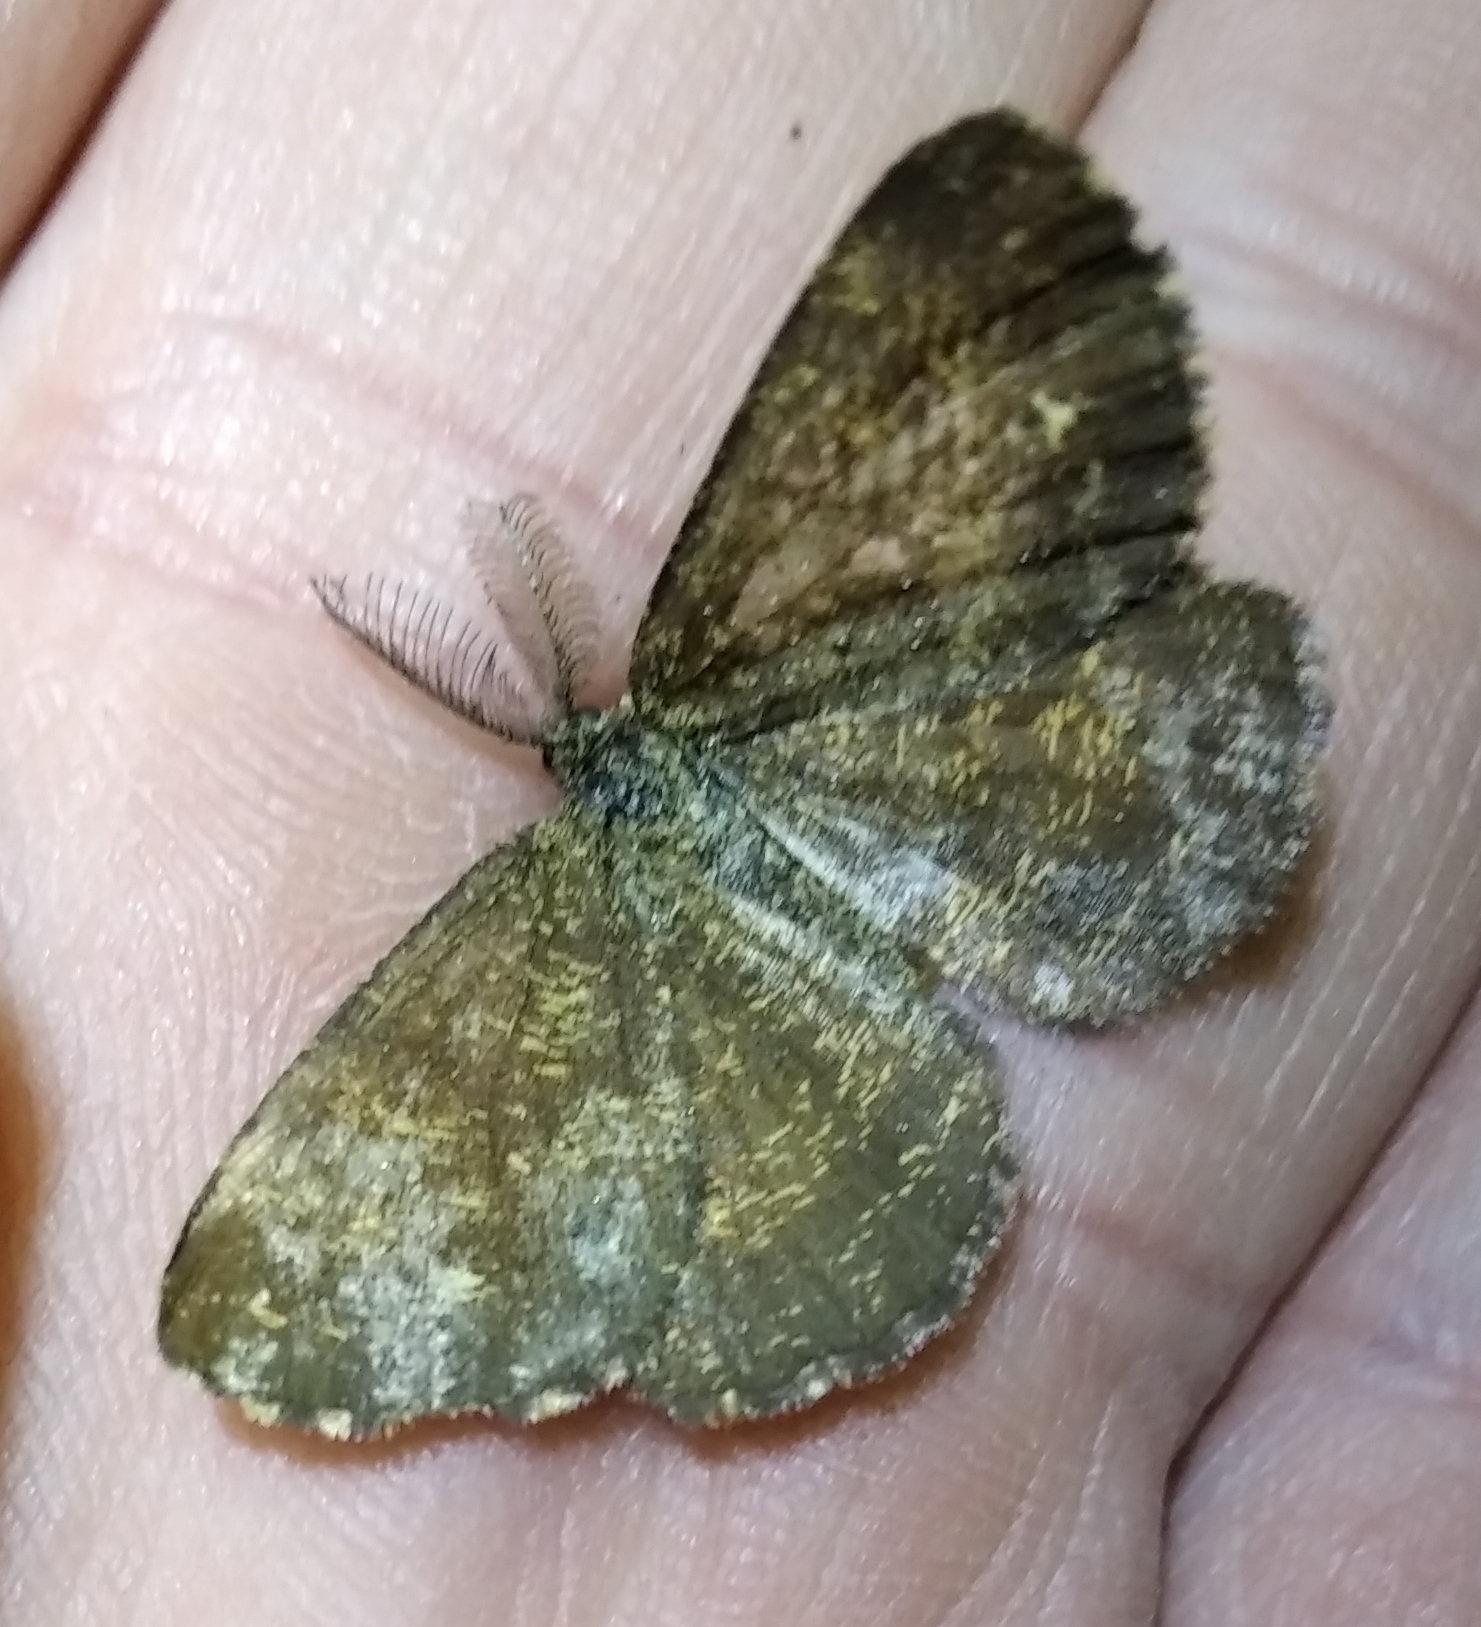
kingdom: Animalia
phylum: Arthropoda
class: Insecta
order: Lepidoptera
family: Geometridae
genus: Ematurga
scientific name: Ematurga atomaria
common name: Common heath
